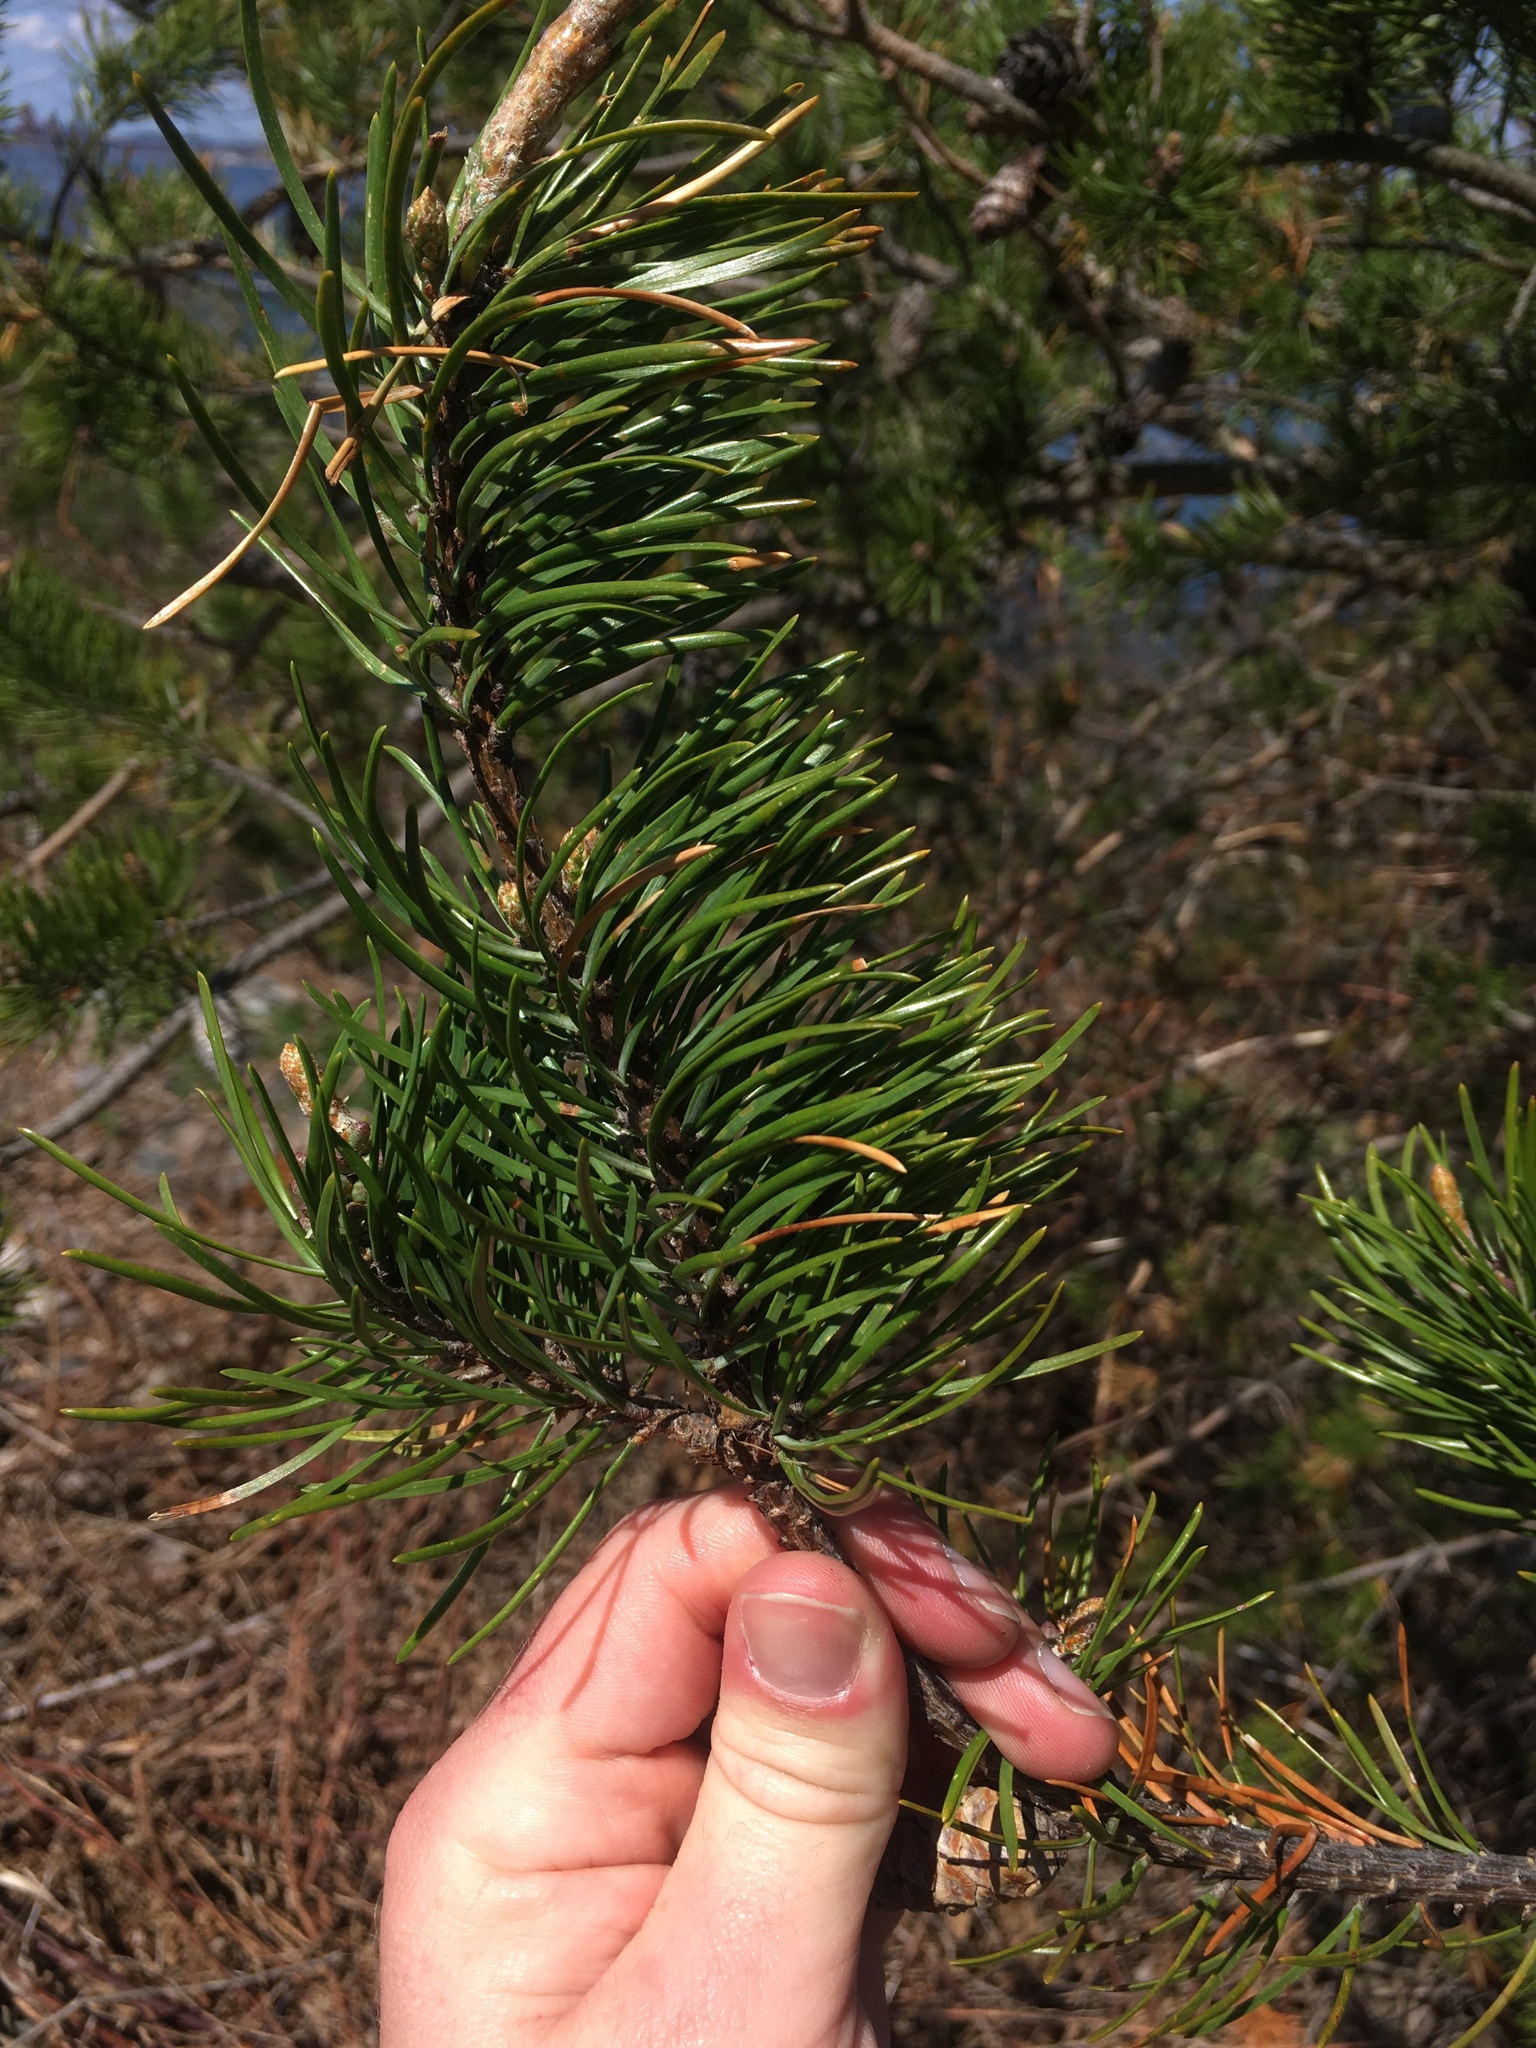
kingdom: Plantae
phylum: Tracheophyta
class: Pinopsida
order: Pinales
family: Pinaceae
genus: Pinus
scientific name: Pinus banksiana
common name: Jack pine
